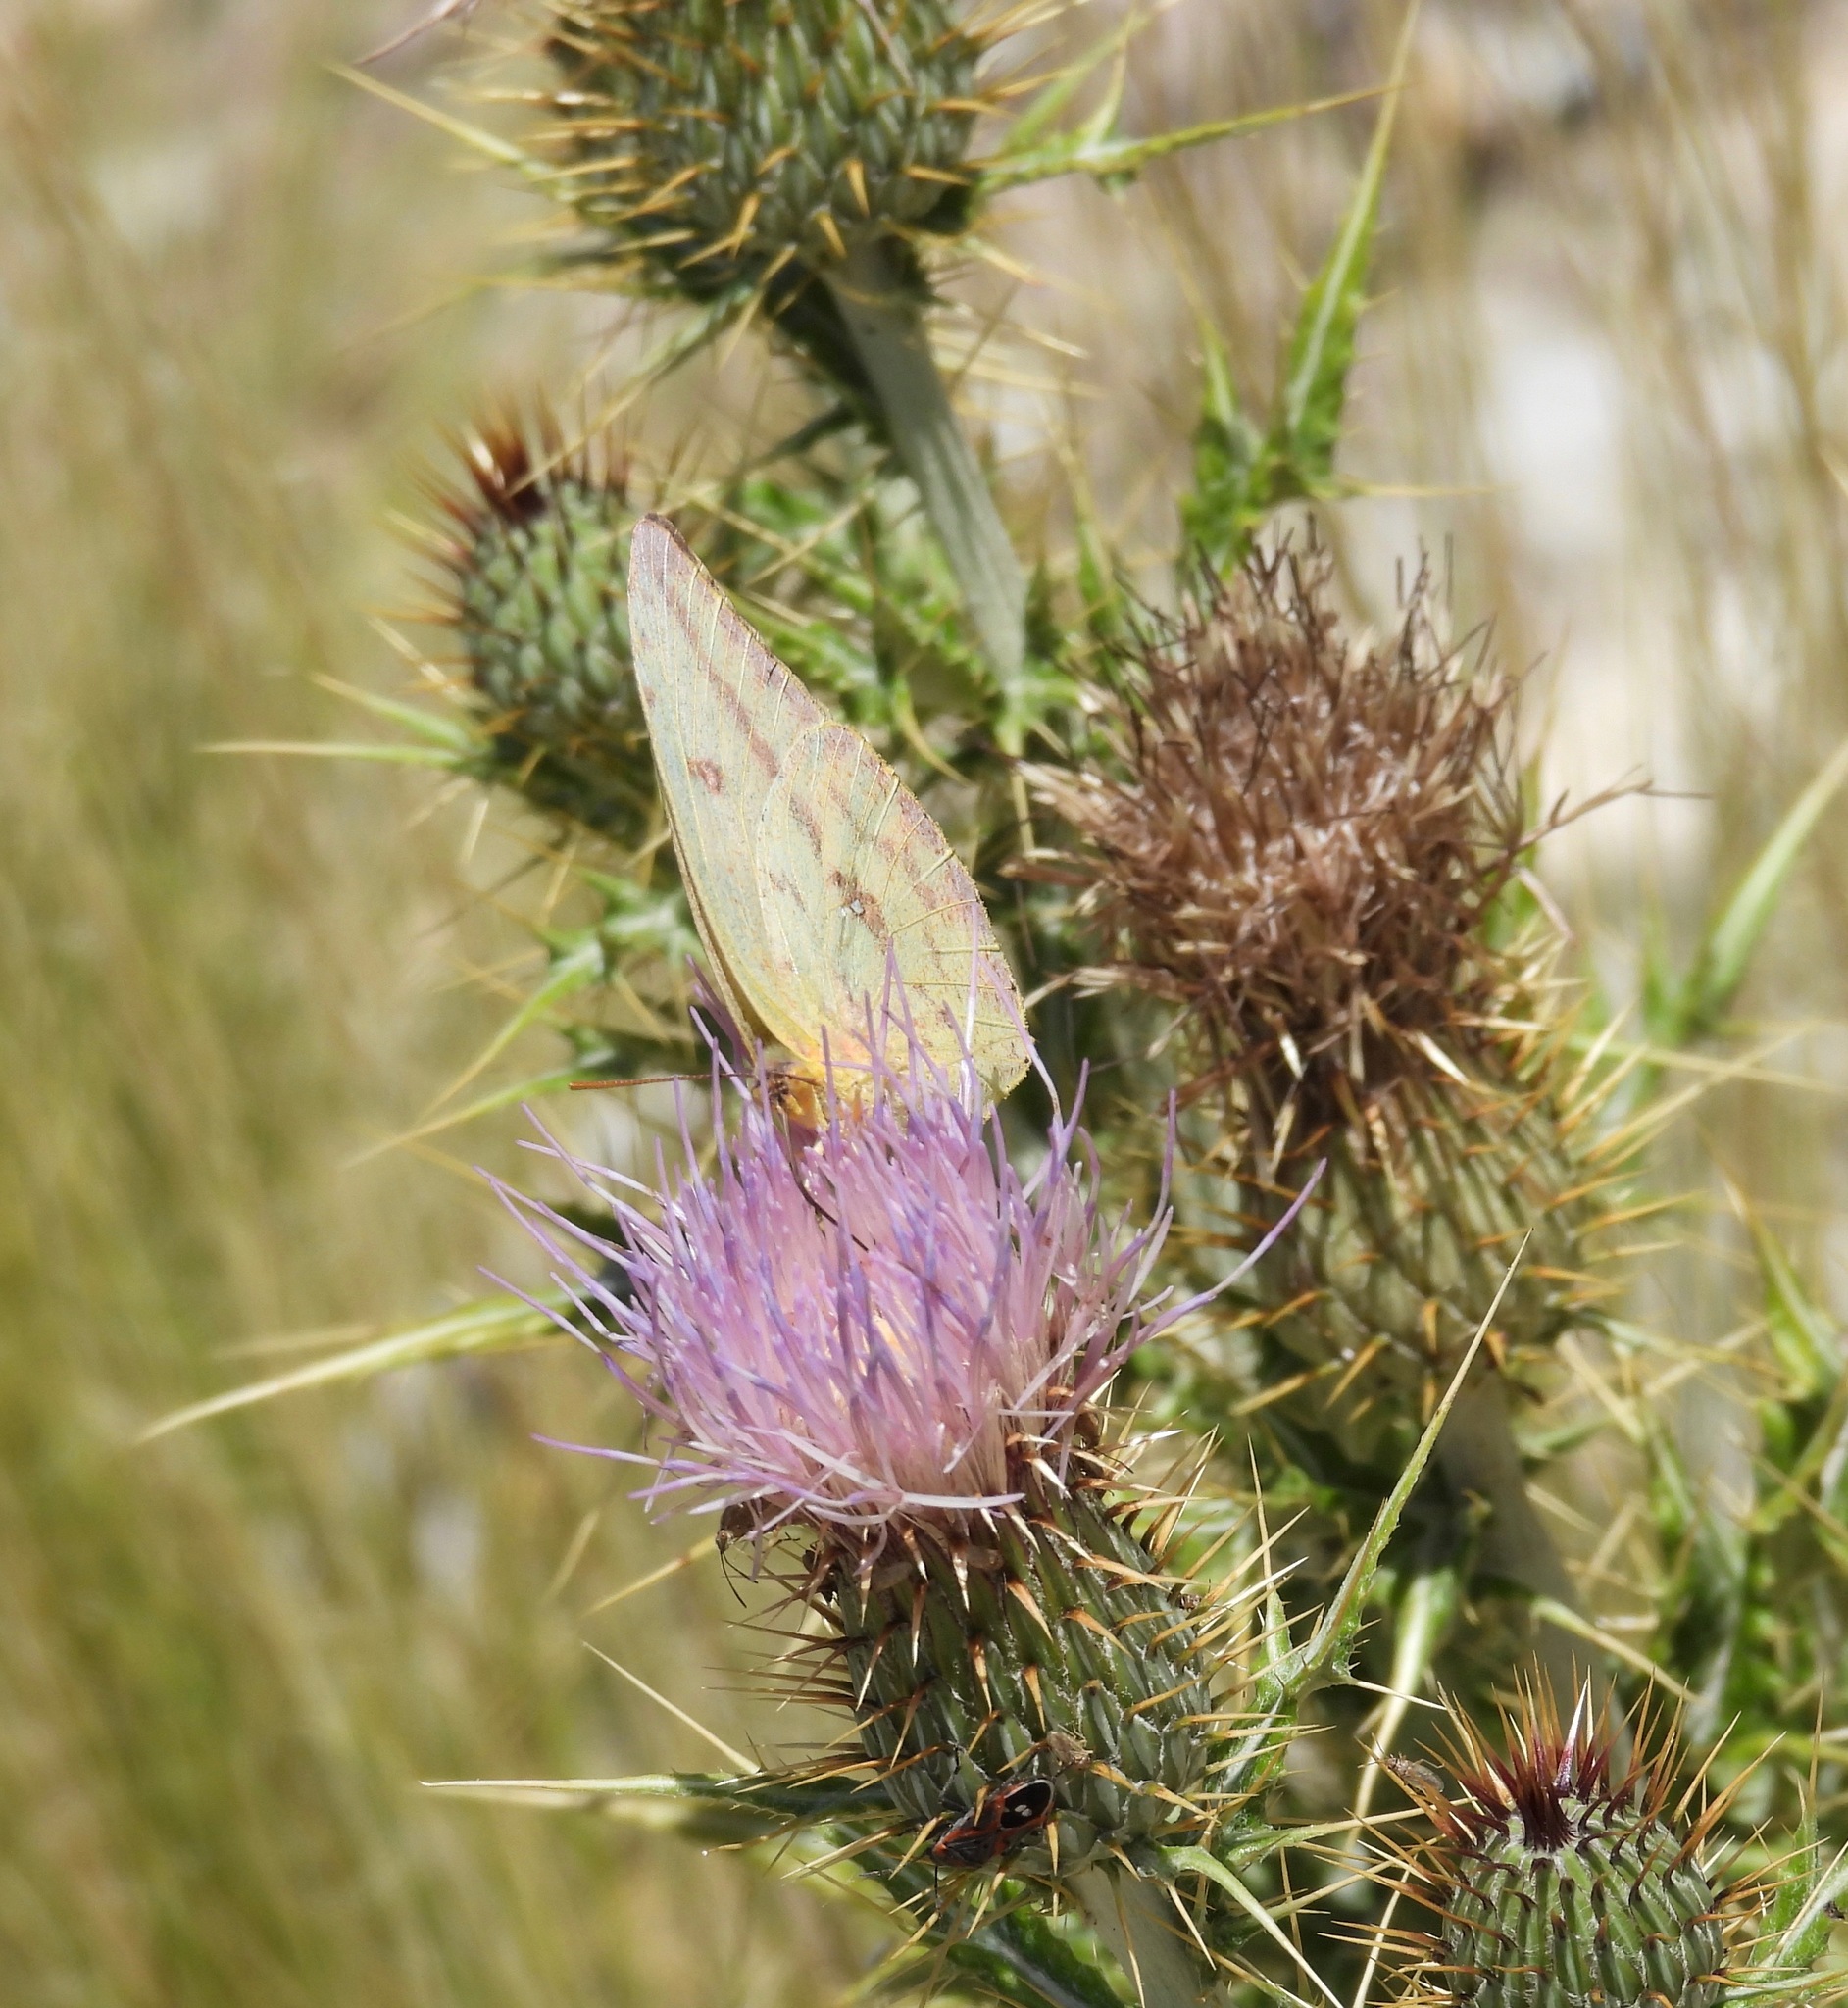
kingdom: Animalia
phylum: Arthropoda
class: Insecta
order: Lepidoptera
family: Pieridae
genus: Phoebis
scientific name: Phoebis agarithe
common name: Large orange sulphur
